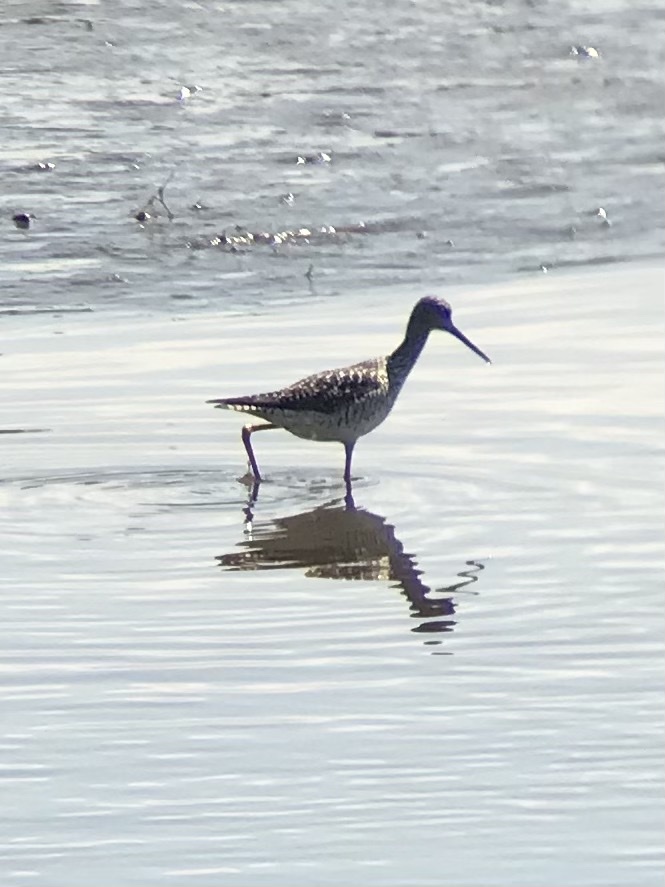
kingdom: Animalia
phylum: Chordata
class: Aves
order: Charadriiformes
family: Scolopacidae
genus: Tringa
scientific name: Tringa melanoleuca
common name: Greater yellowlegs
